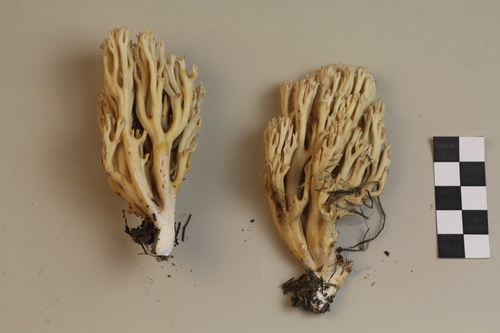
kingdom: Fungi
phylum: Basidiomycota
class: Agaricomycetes
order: Gomphales
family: Gomphaceae
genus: Ramaria
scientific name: Ramaria
